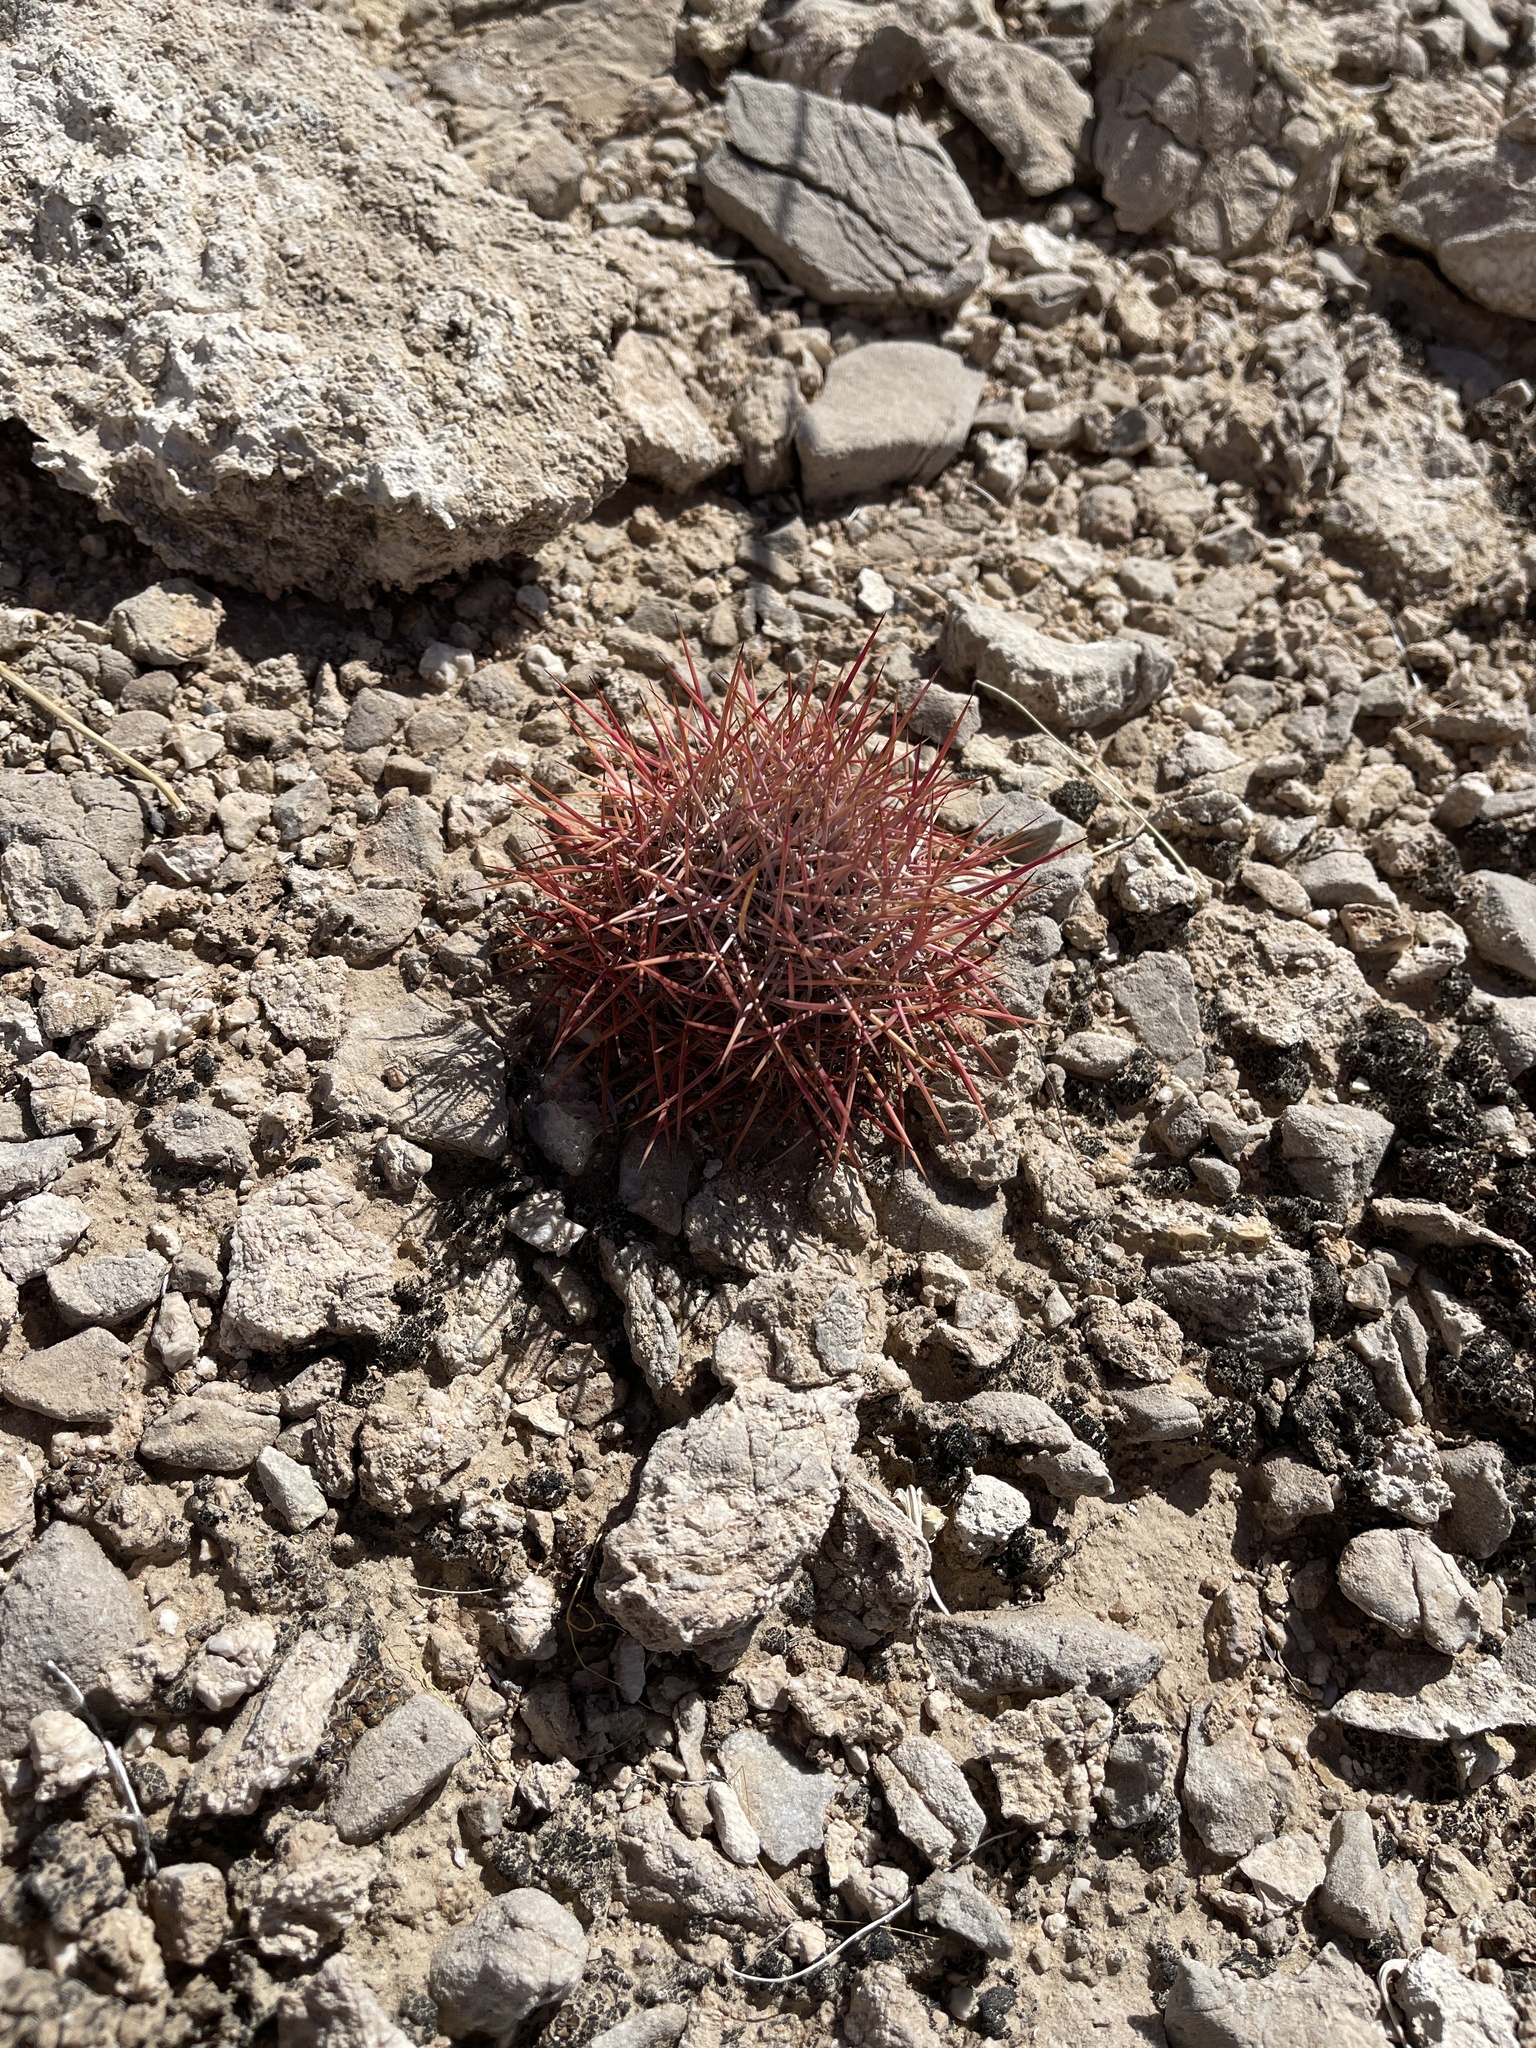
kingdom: Plantae
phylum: Tracheophyta
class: Magnoliopsida
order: Caryophyllales
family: Cactaceae
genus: Sclerocactus
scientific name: Sclerocactus johnsonii
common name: Eight-spine fishhook cactus
